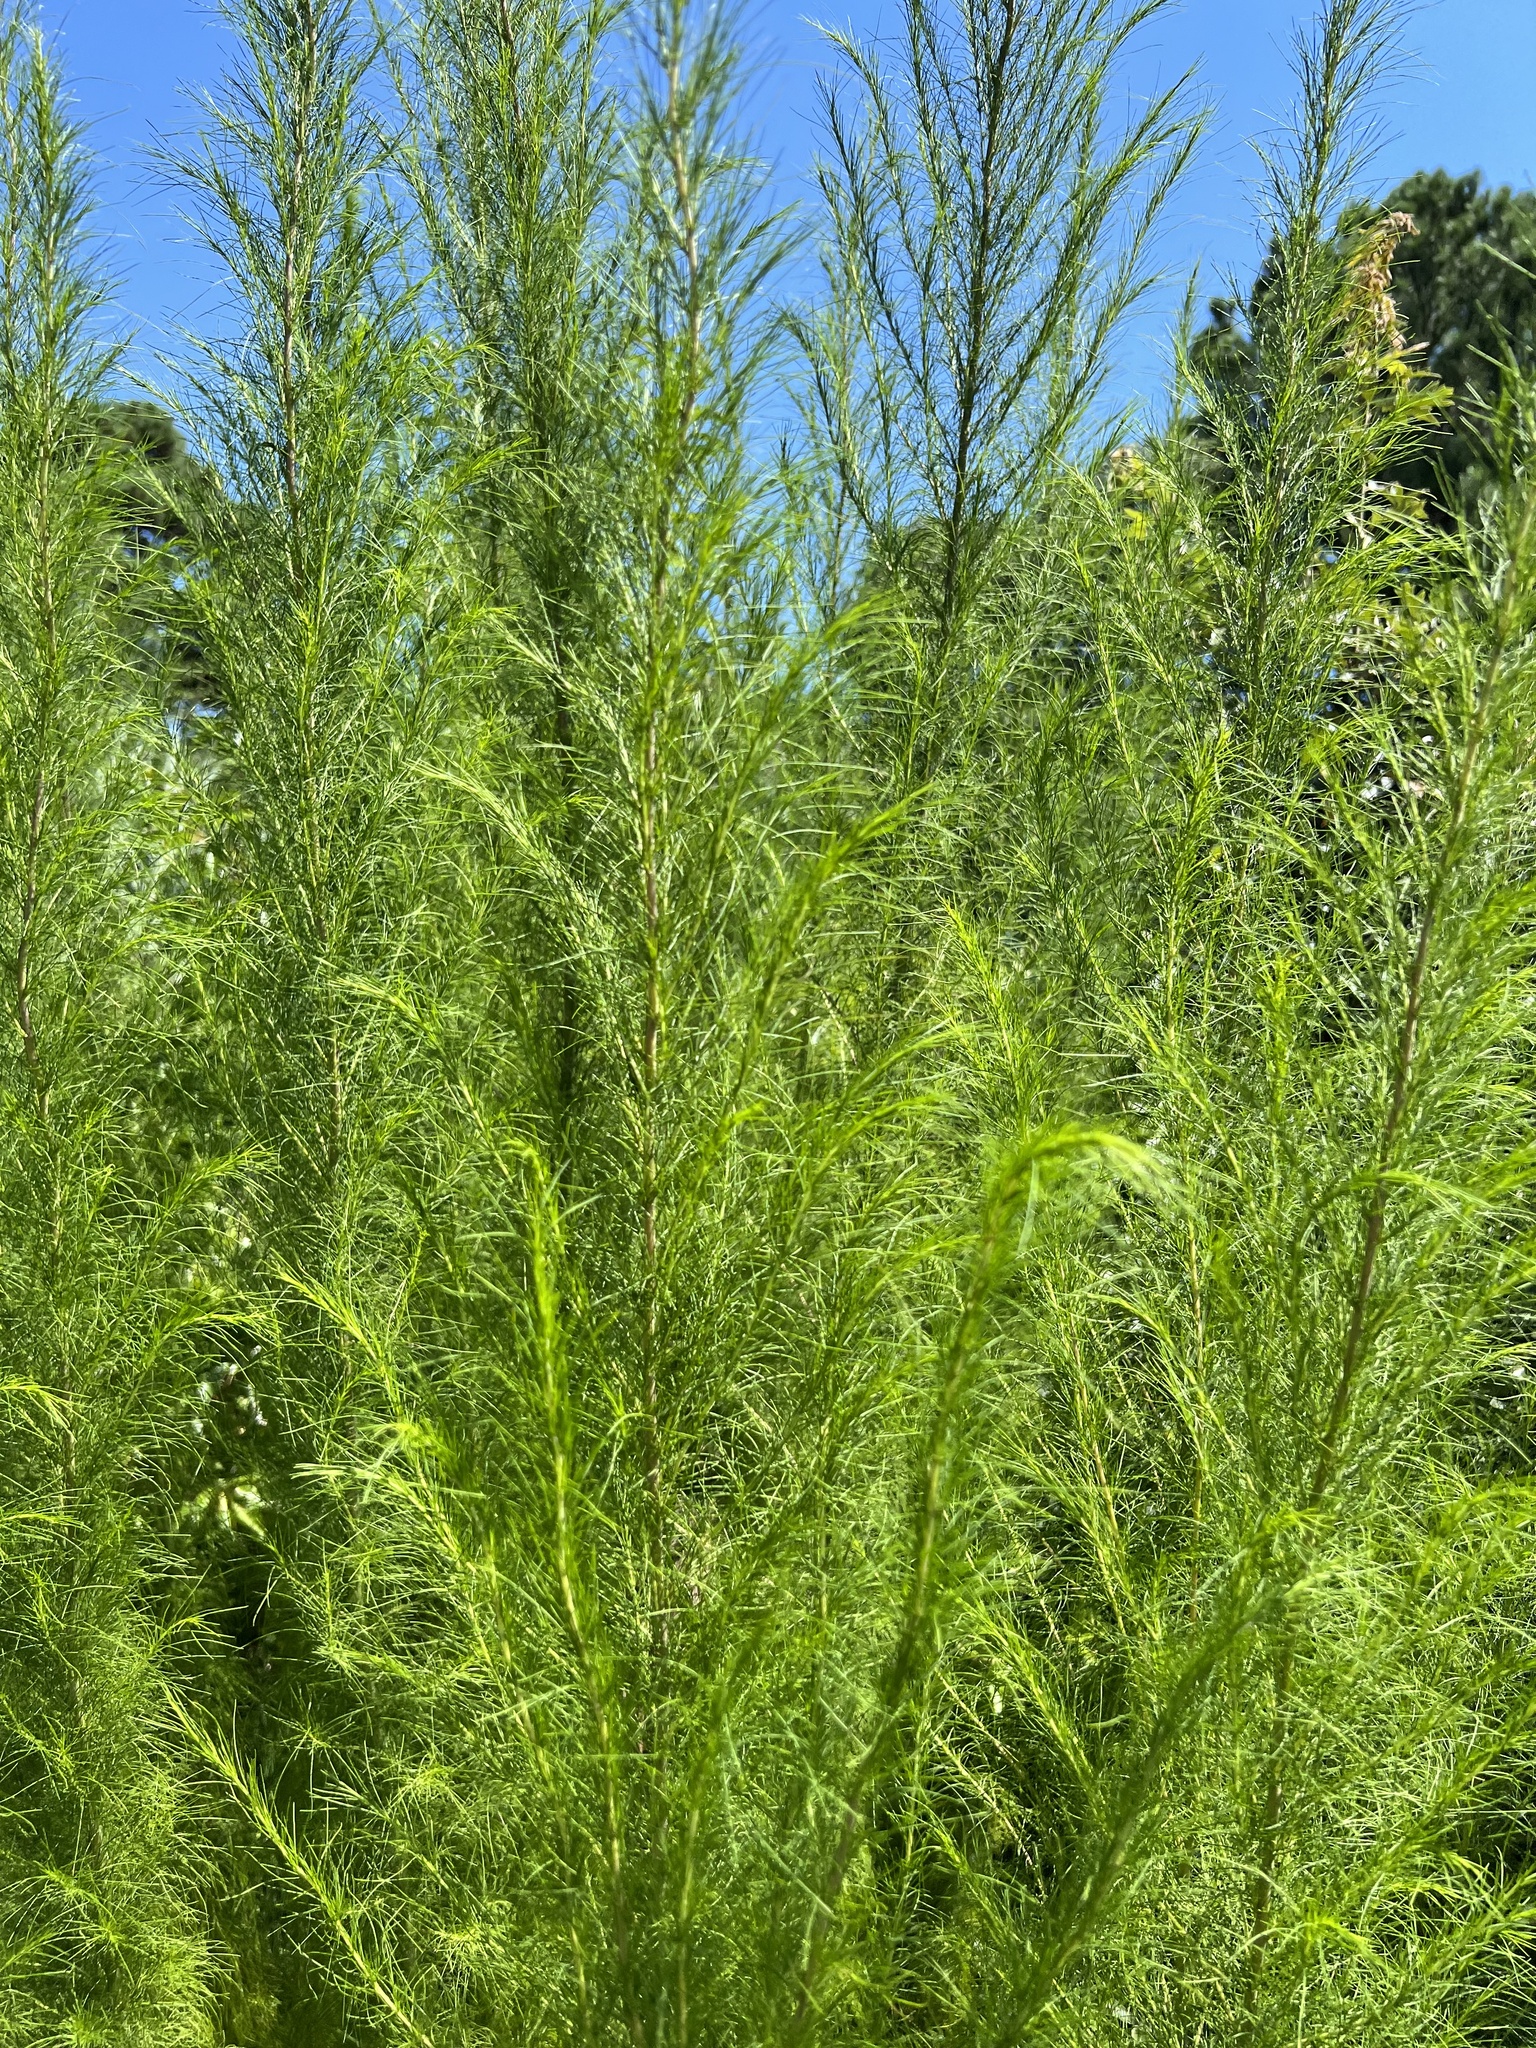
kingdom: Plantae
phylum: Tracheophyta
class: Magnoliopsida
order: Asterales
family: Asteraceae
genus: Eupatorium
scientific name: Eupatorium capillifolium
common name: Dog-fennel
